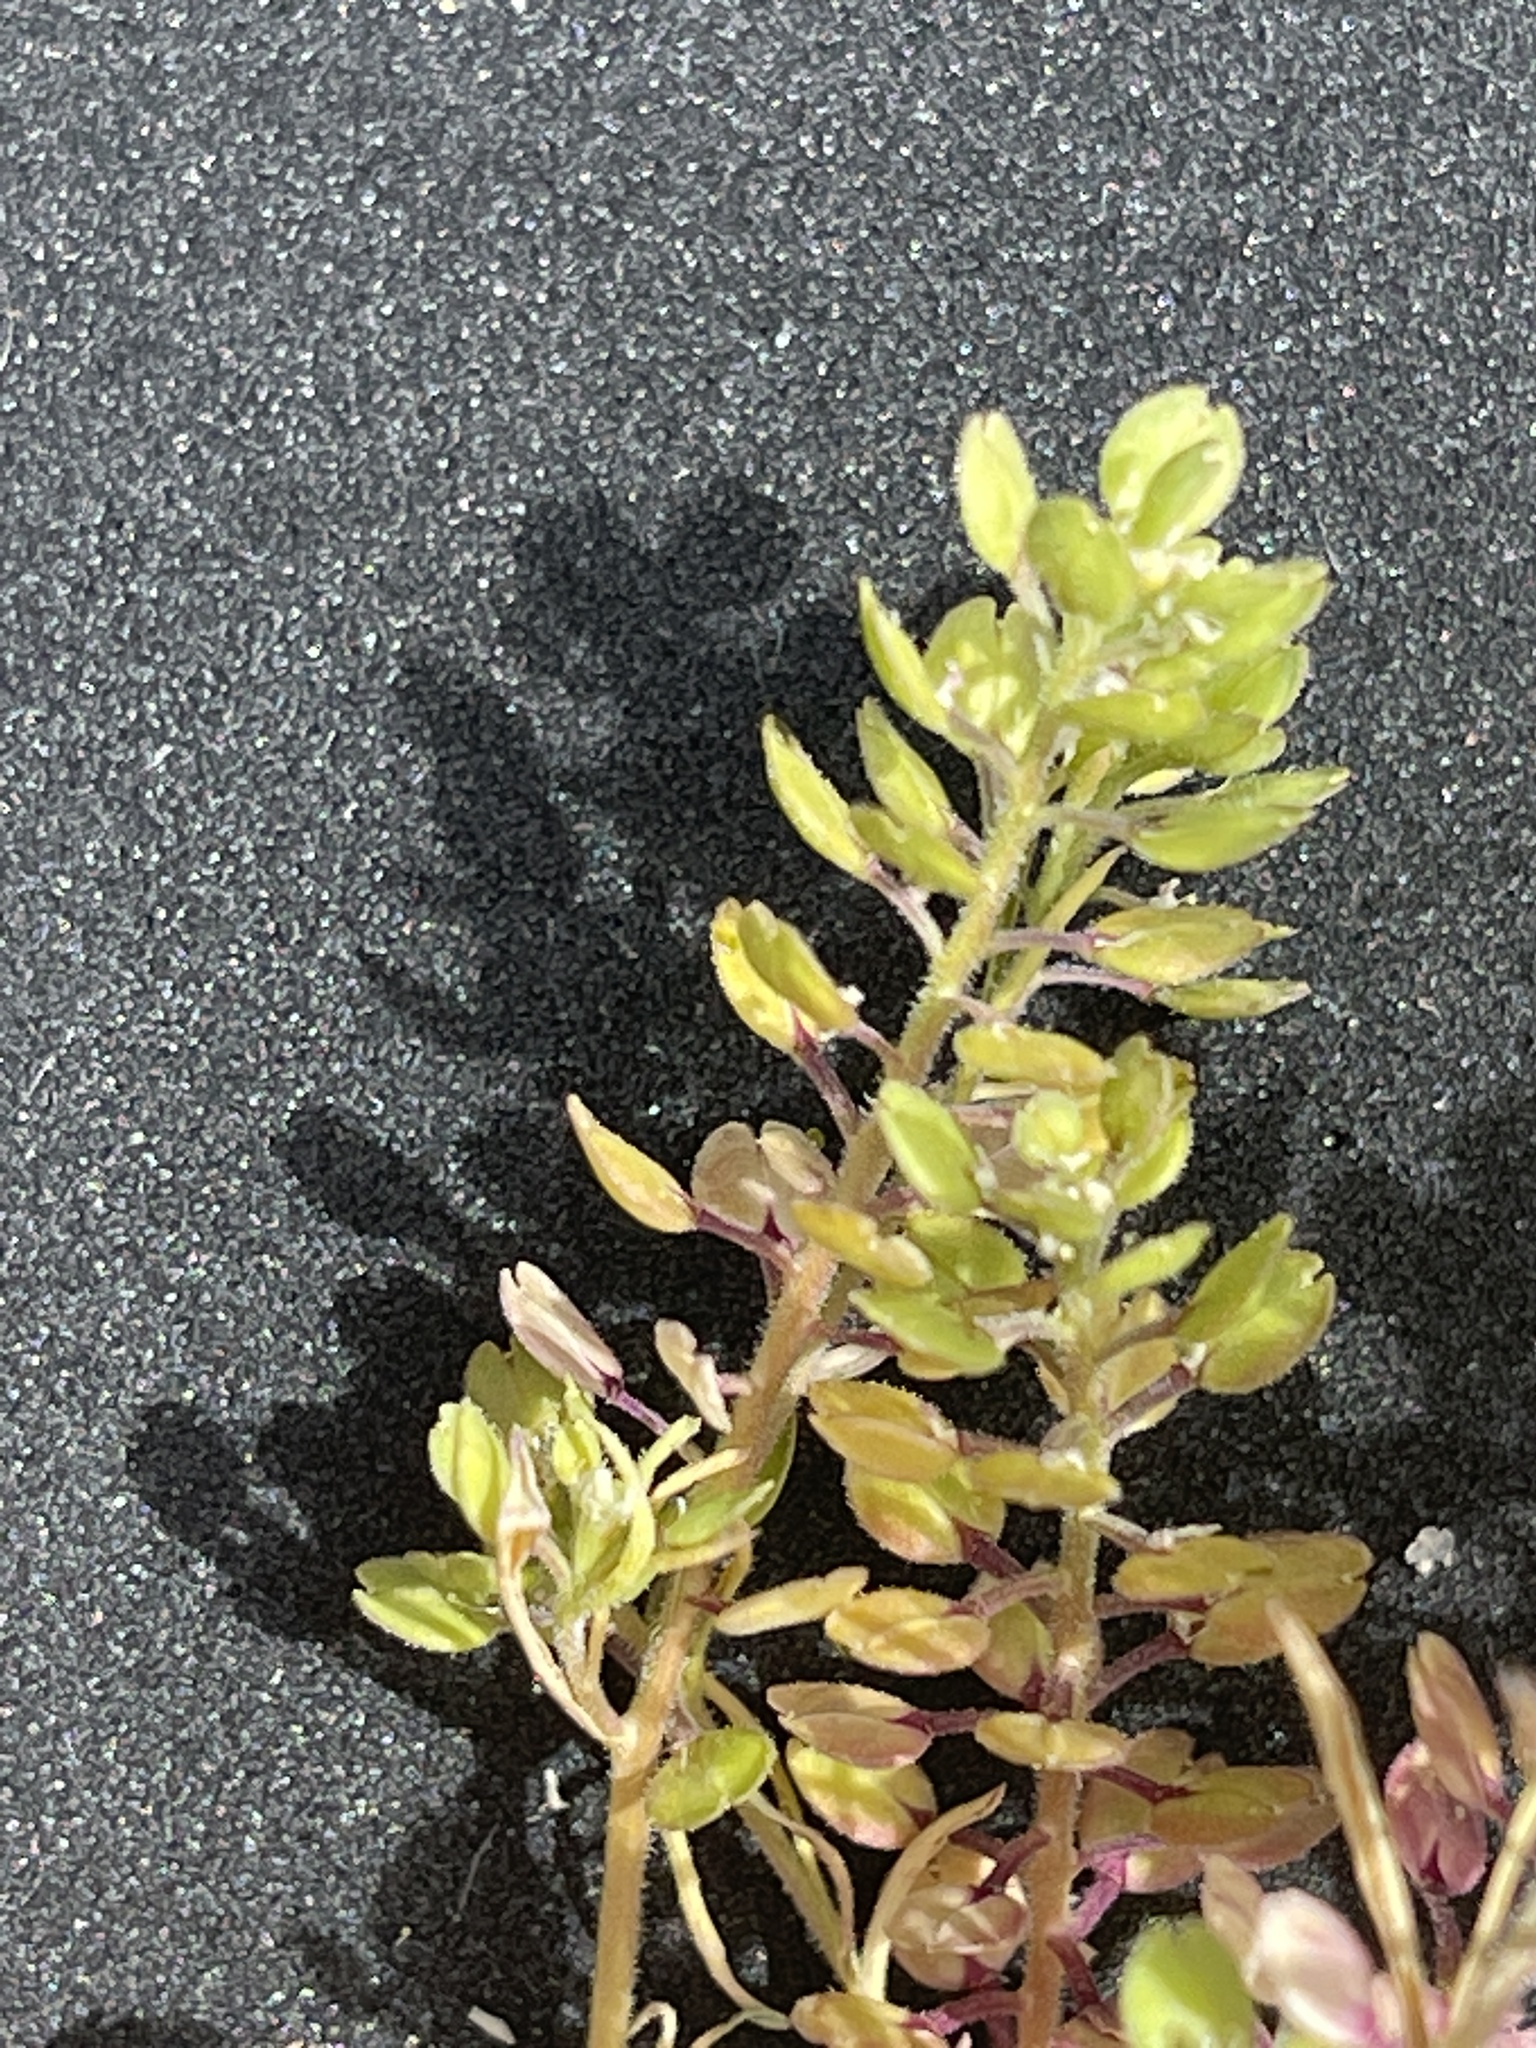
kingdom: Plantae
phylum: Tracheophyta
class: Magnoliopsida
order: Brassicales
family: Brassicaceae
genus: Lepidium
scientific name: Lepidium lasiocarpum
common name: Hairy-pod pepperwort
